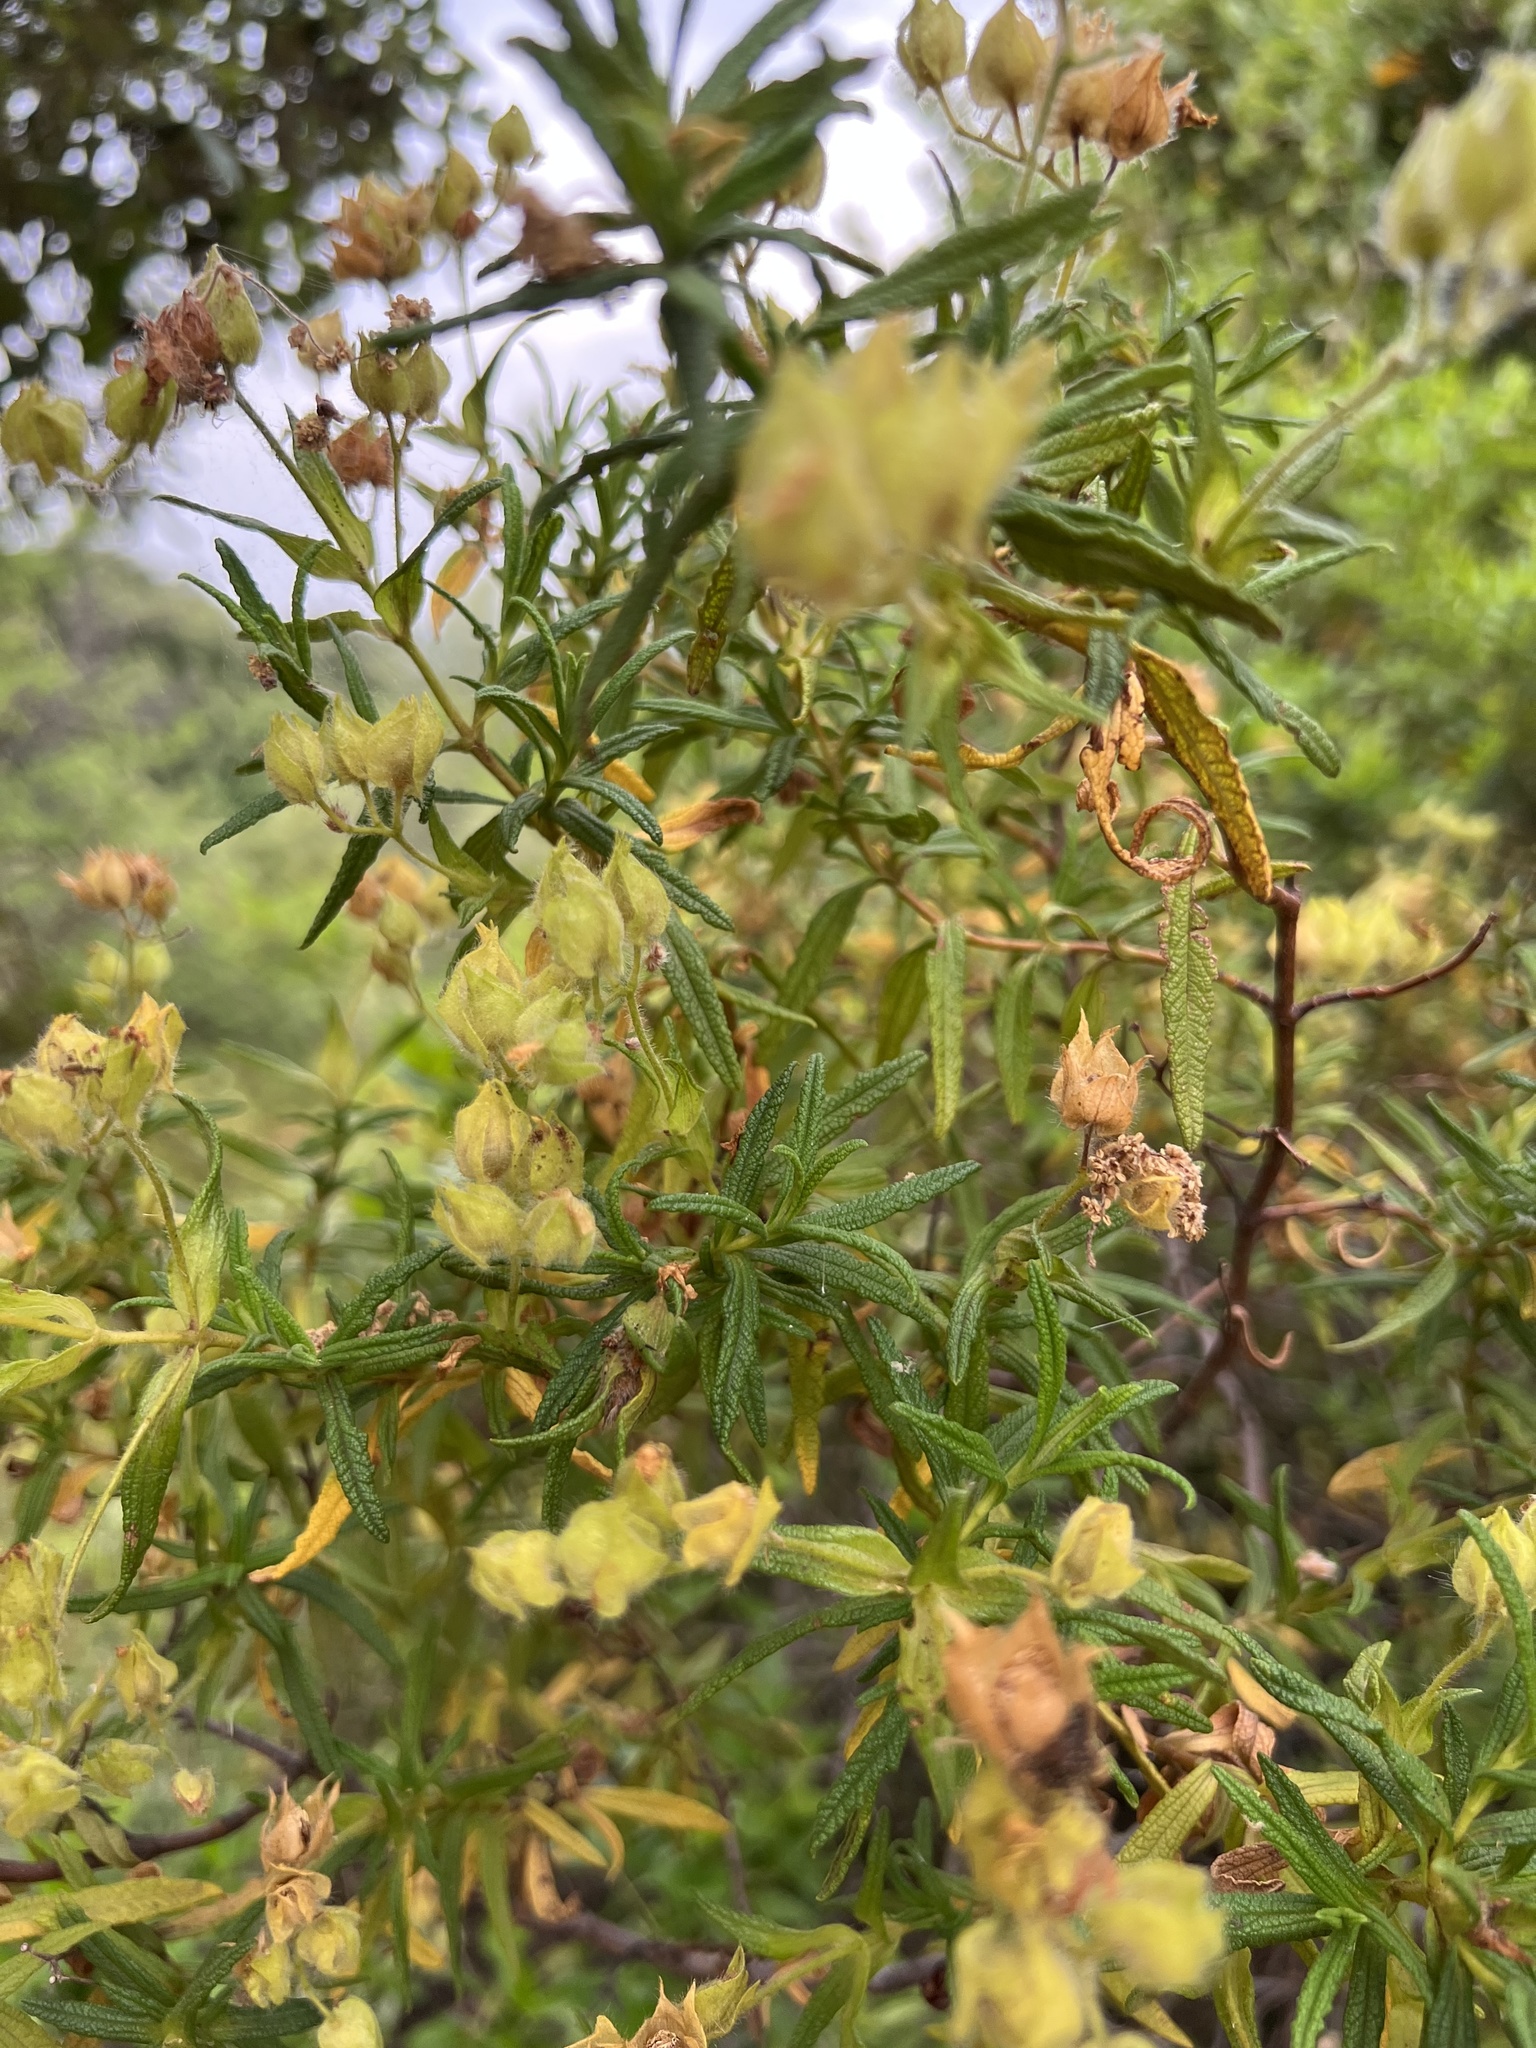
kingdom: Plantae
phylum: Tracheophyta
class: Magnoliopsida
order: Malvales
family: Cistaceae
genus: Cistus
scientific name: Cistus monspeliensis
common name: Montpelier cistus
